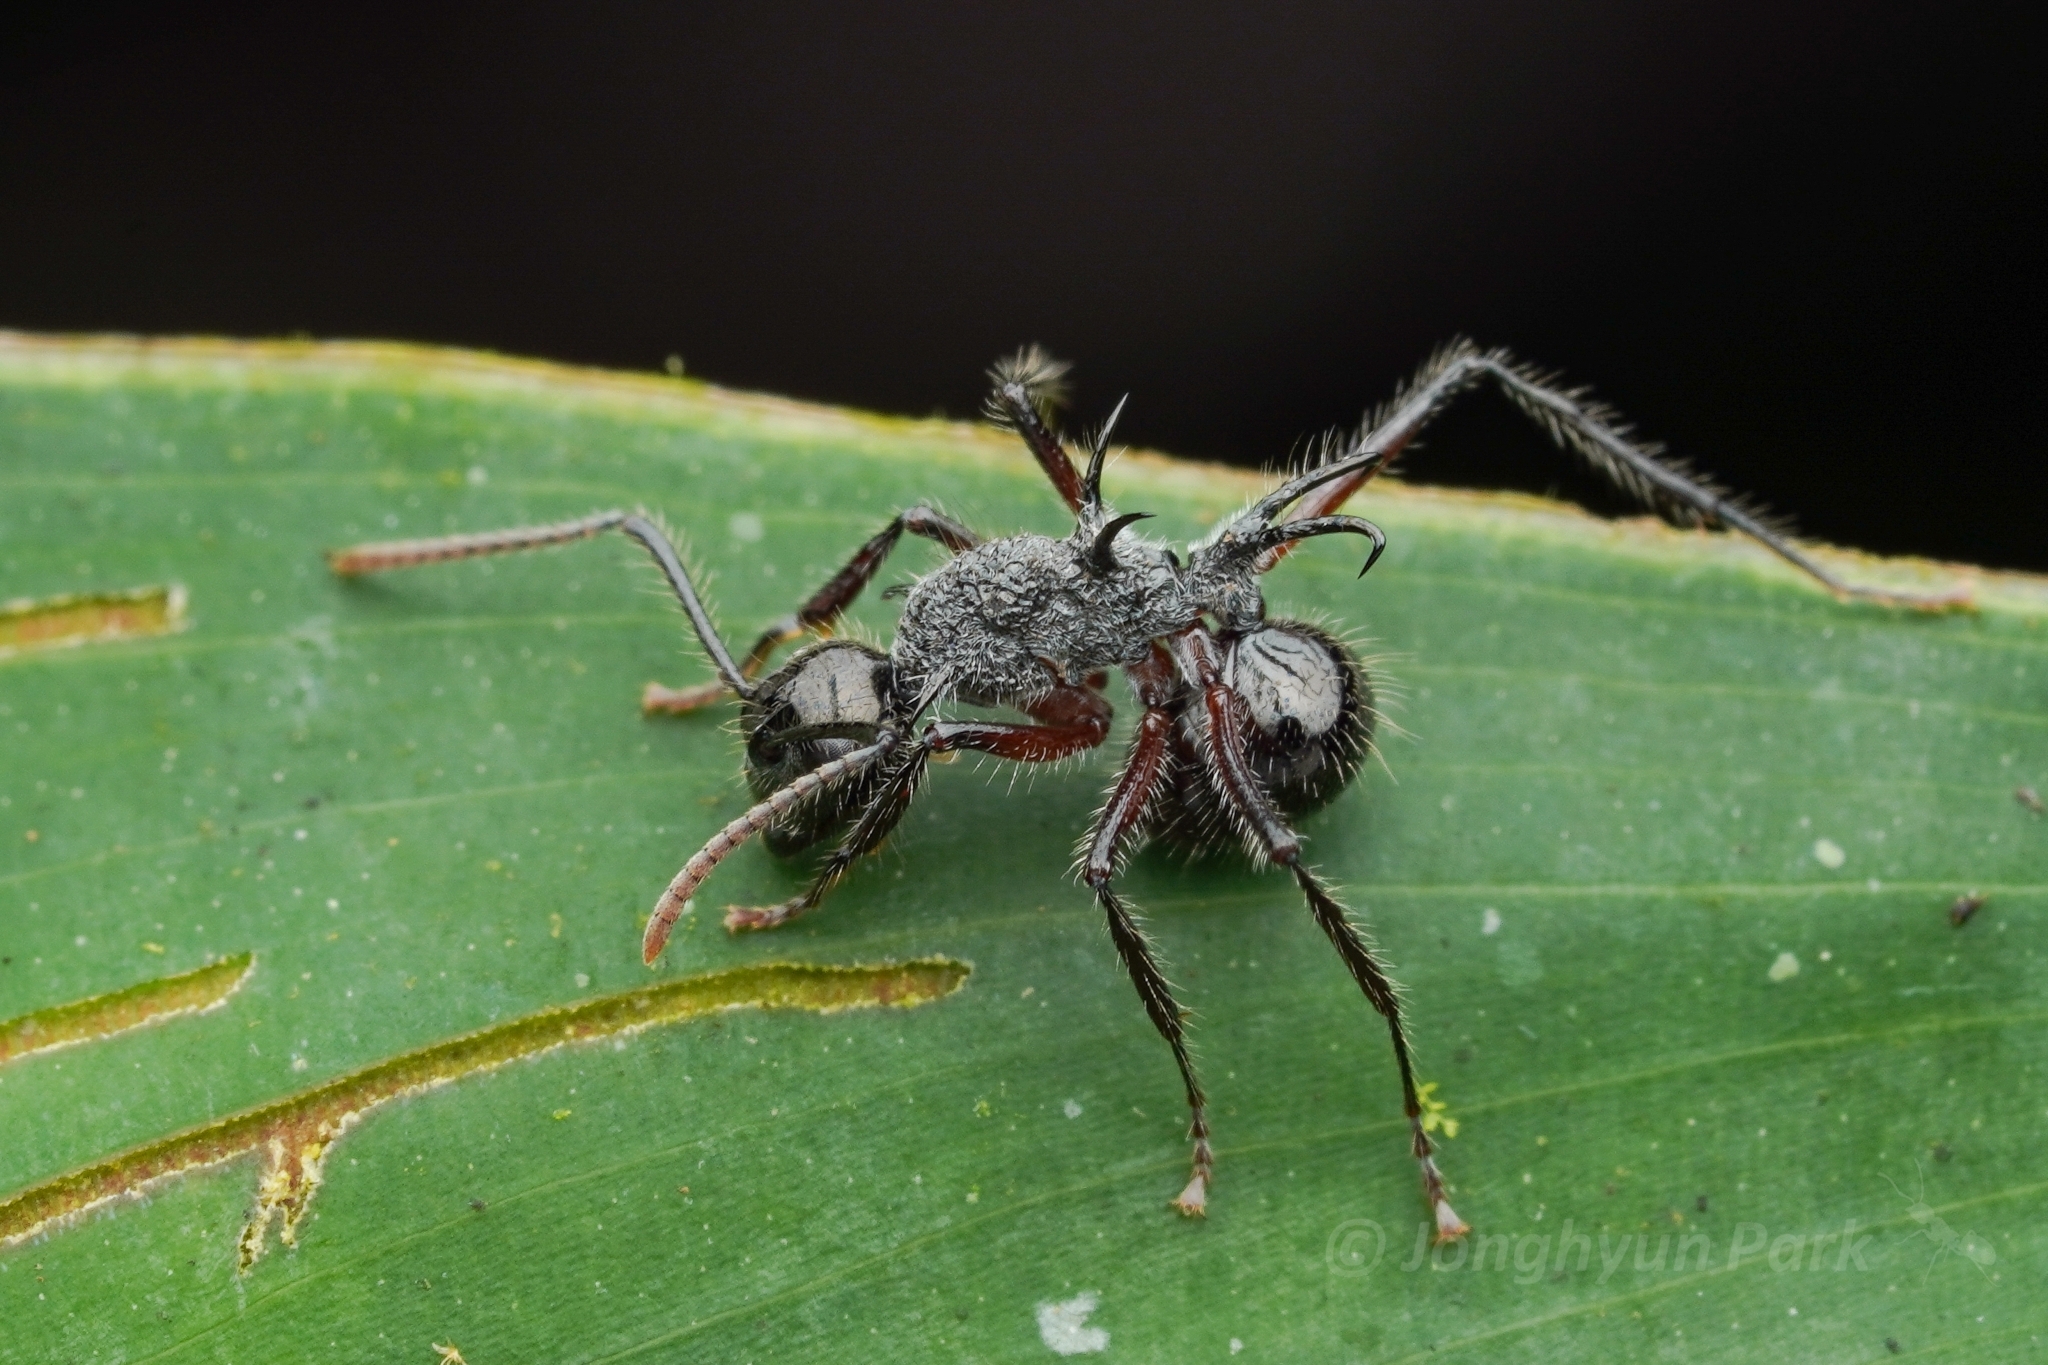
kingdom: Animalia
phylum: Arthropoda
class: Insecta
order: Hymenoptera
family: Formicidae
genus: Polyrhachis
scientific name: Polyrhachis furcata
